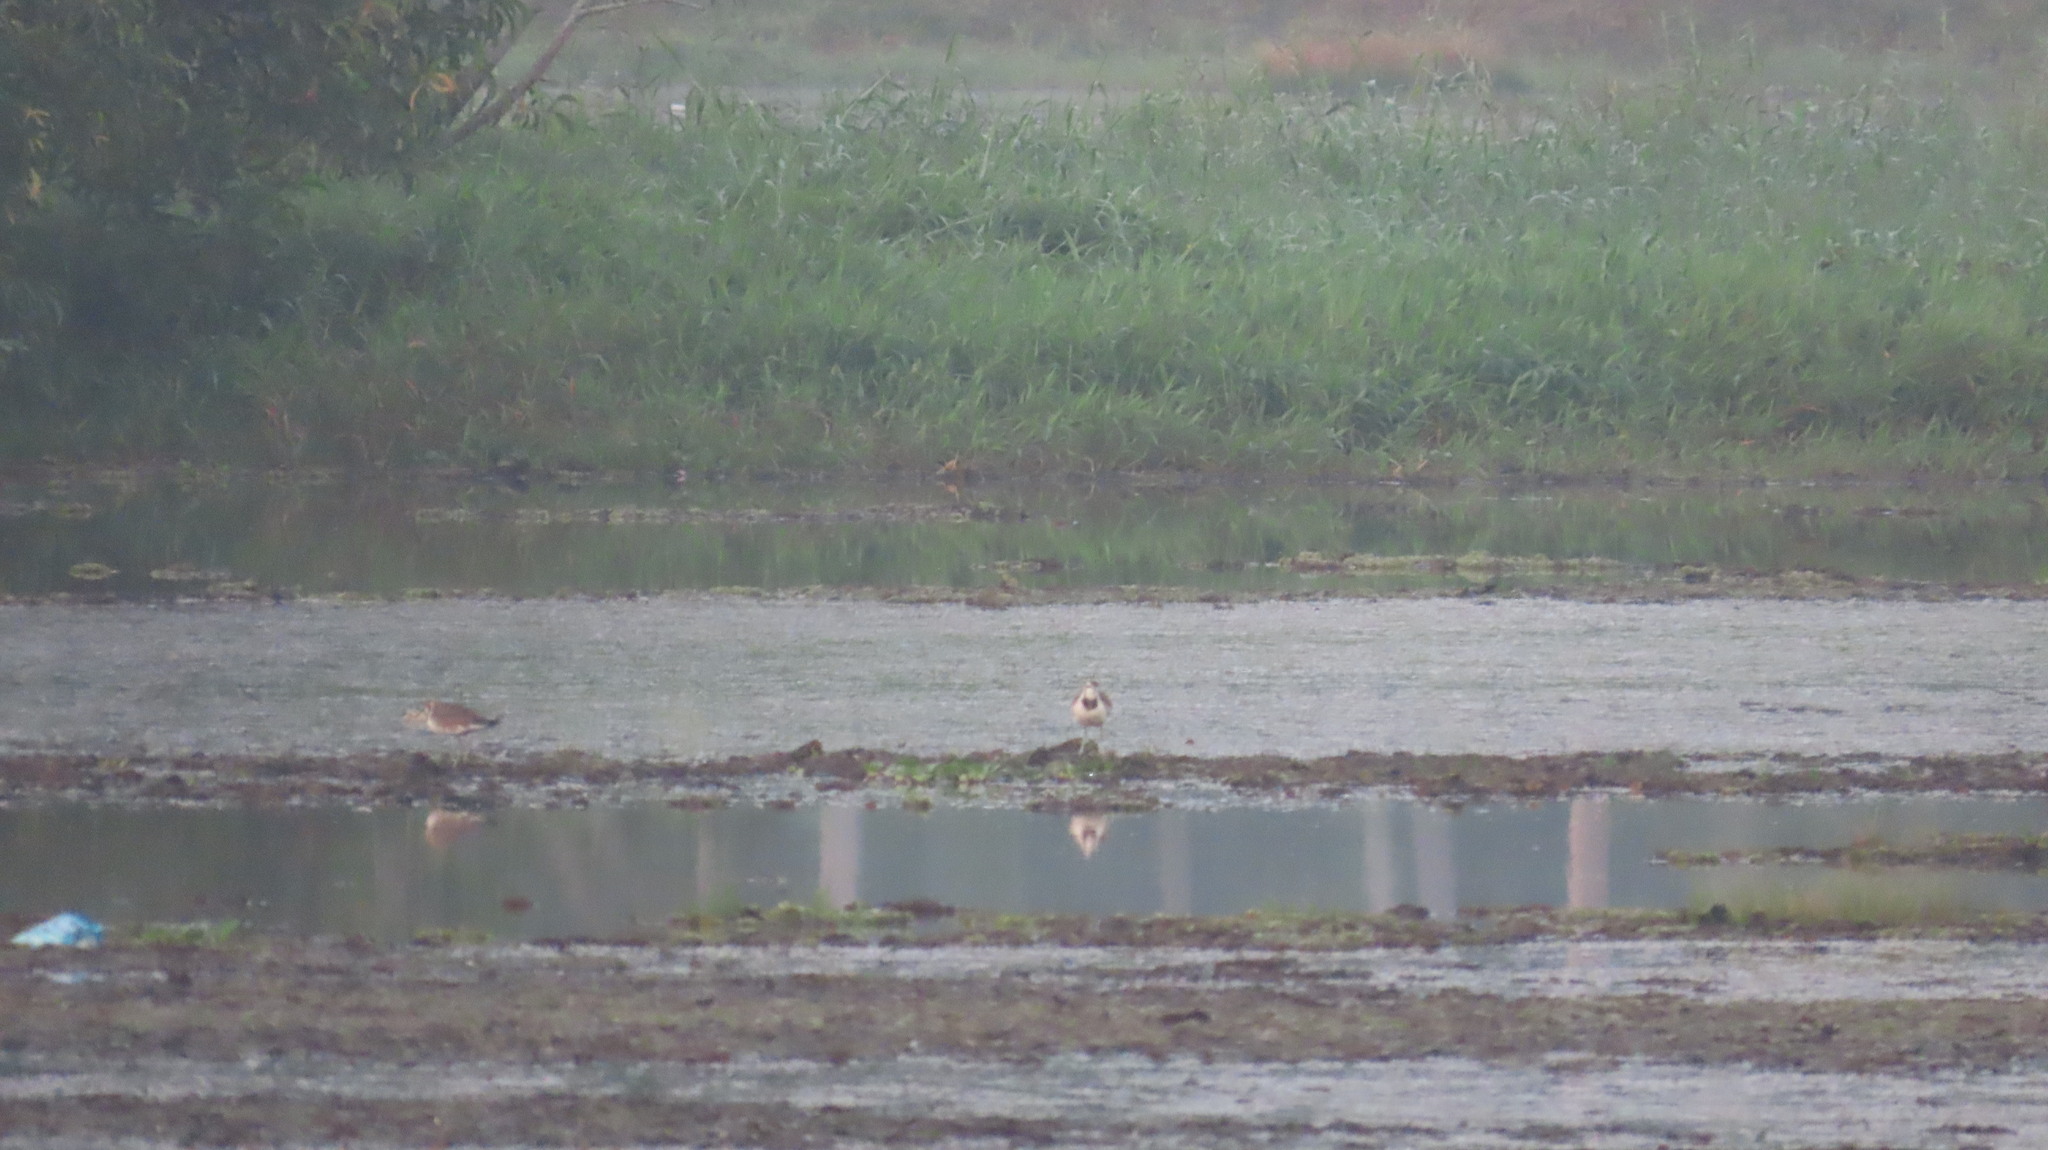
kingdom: Animalia
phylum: Chordata
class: Aves
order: Charadriiformes
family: Jacanidae
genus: Hydrophasianus
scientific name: Hydrophasianus chirurgus
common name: Pheasant-tailed jacana
